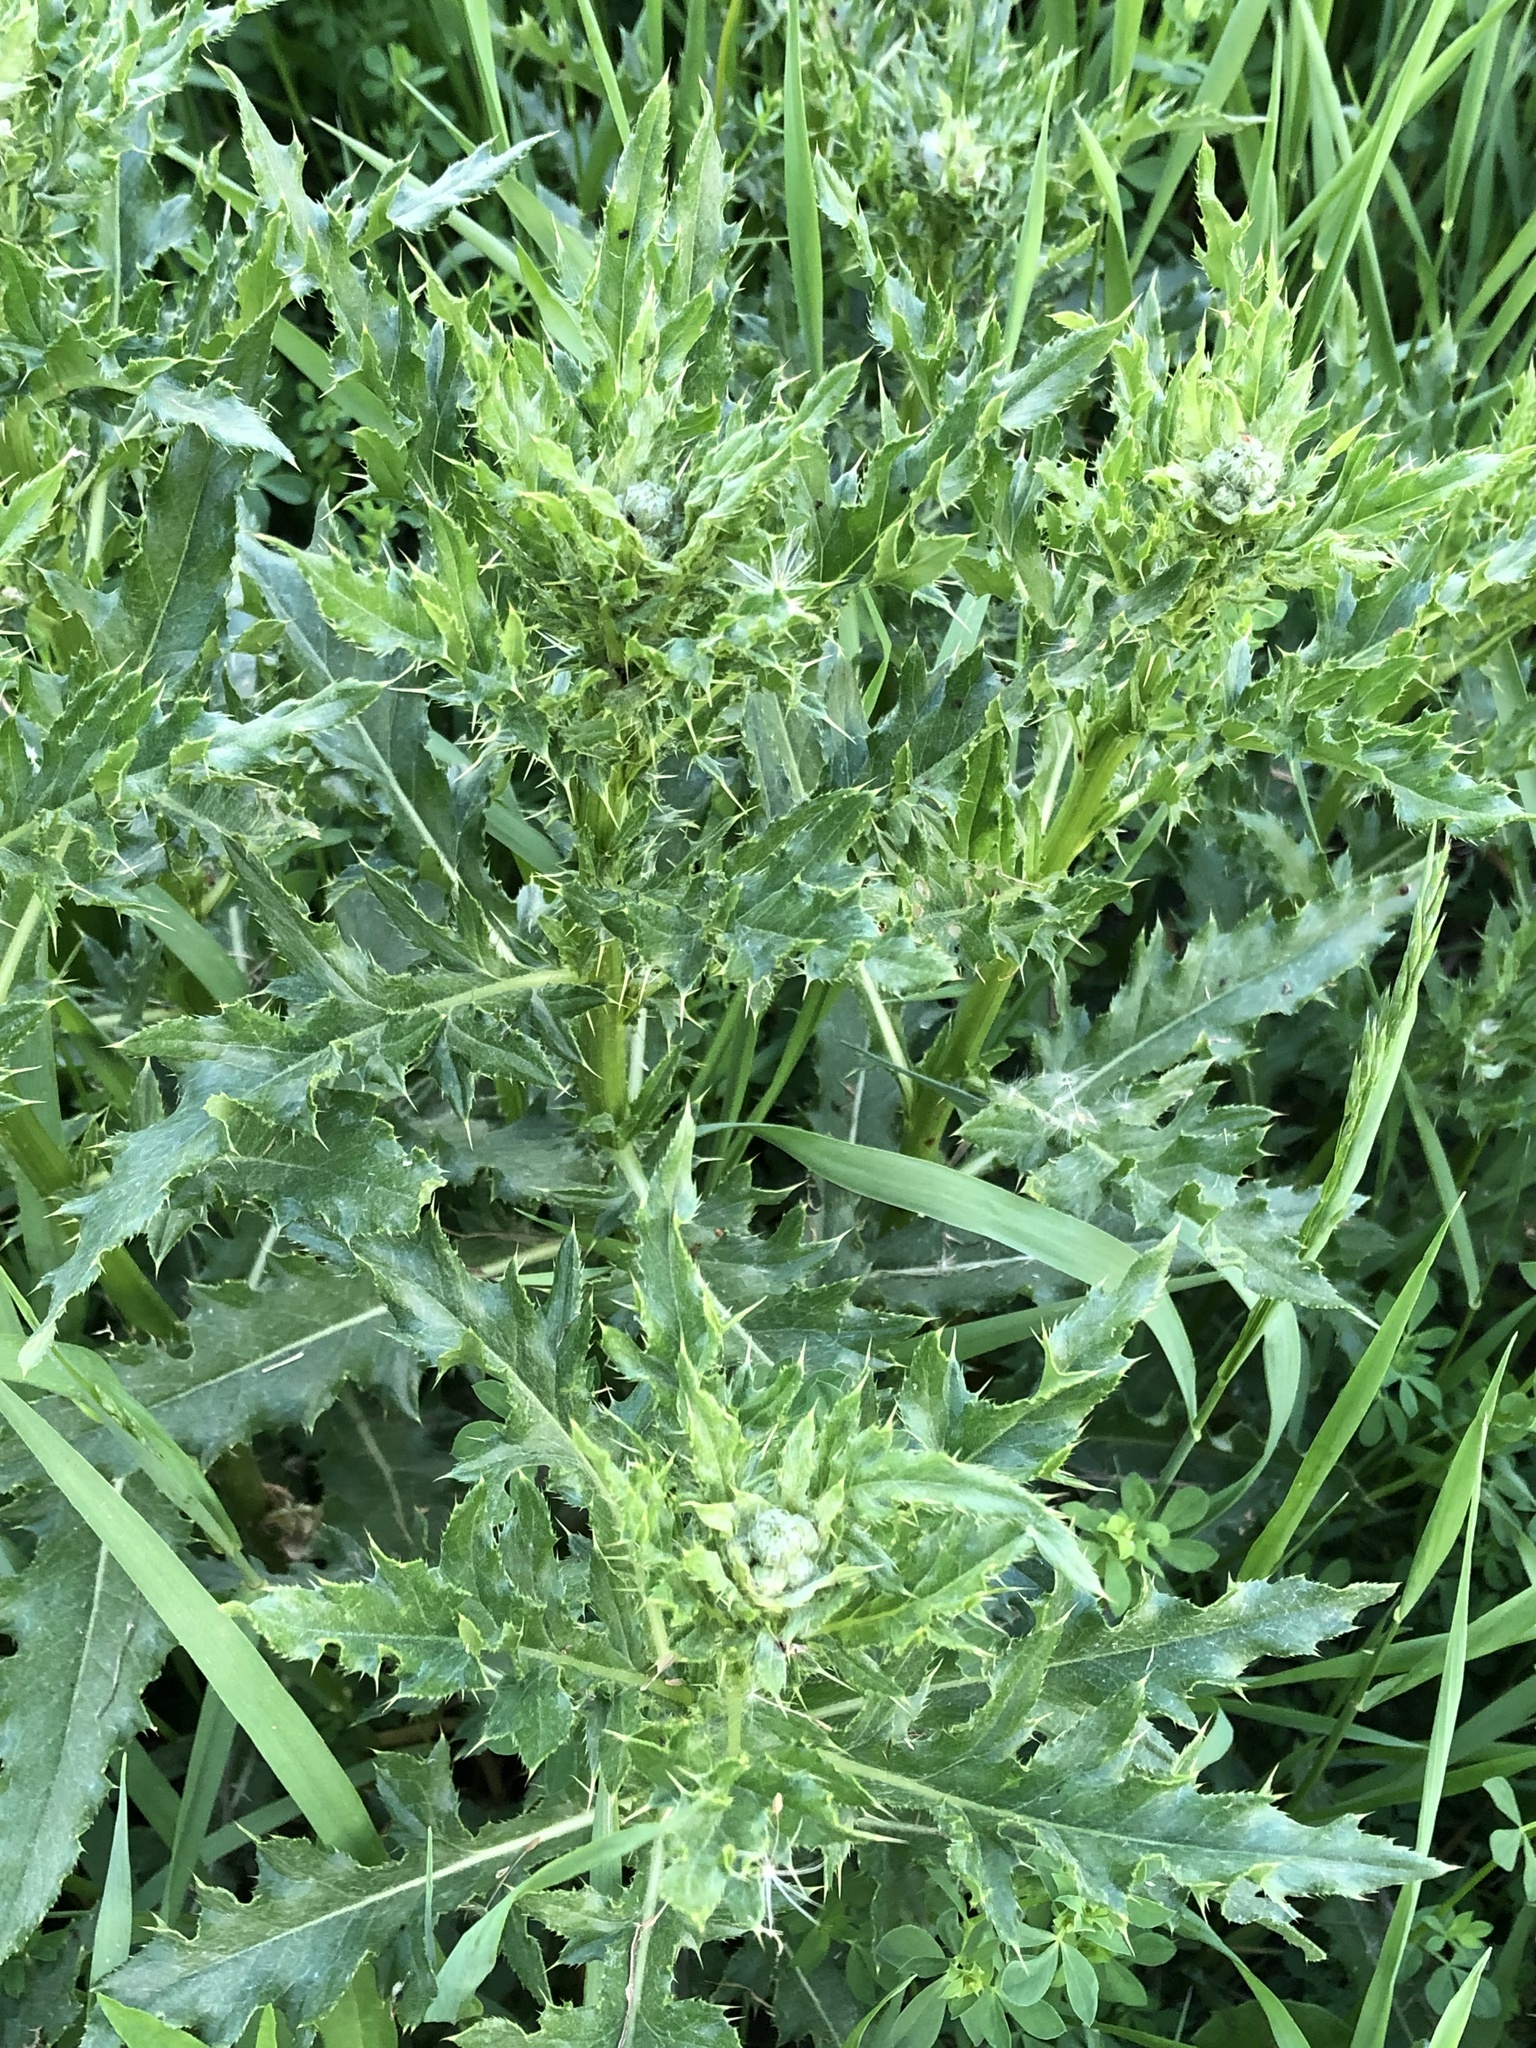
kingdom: Plantae
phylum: Tracheophyta
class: Magnoliopsida
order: Asterales
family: Asteraceae
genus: Cirsium
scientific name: Cirsium arvense
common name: Creeping thistle
